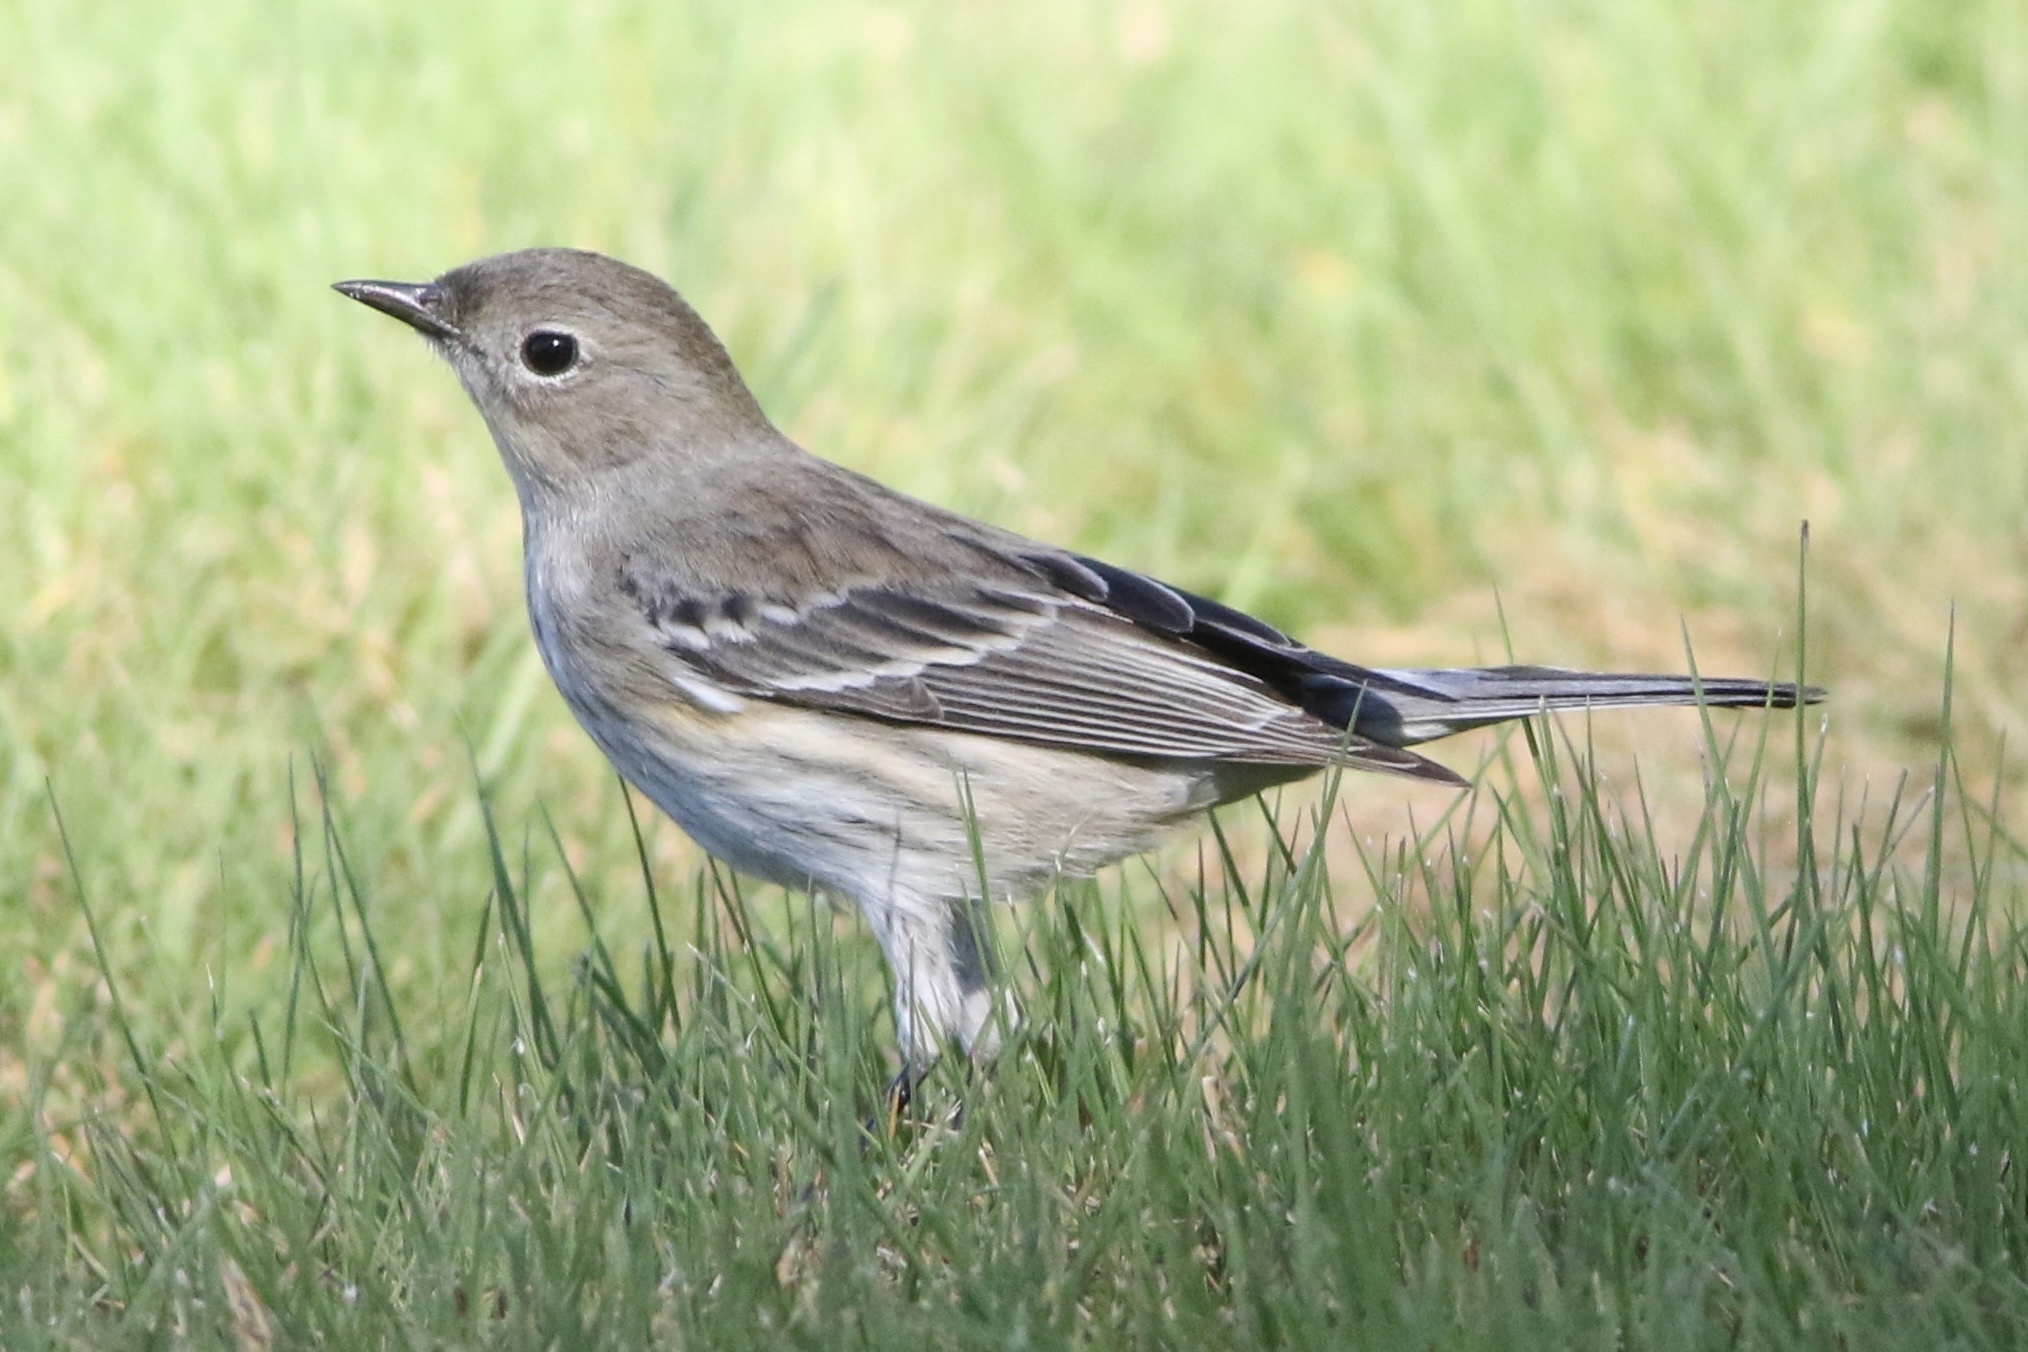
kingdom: Animalia
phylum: Chordata
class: Aves
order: Passeriformes
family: Parulidae
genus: Setophaga
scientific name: Setophaga coronata
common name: Myrtle warbler
